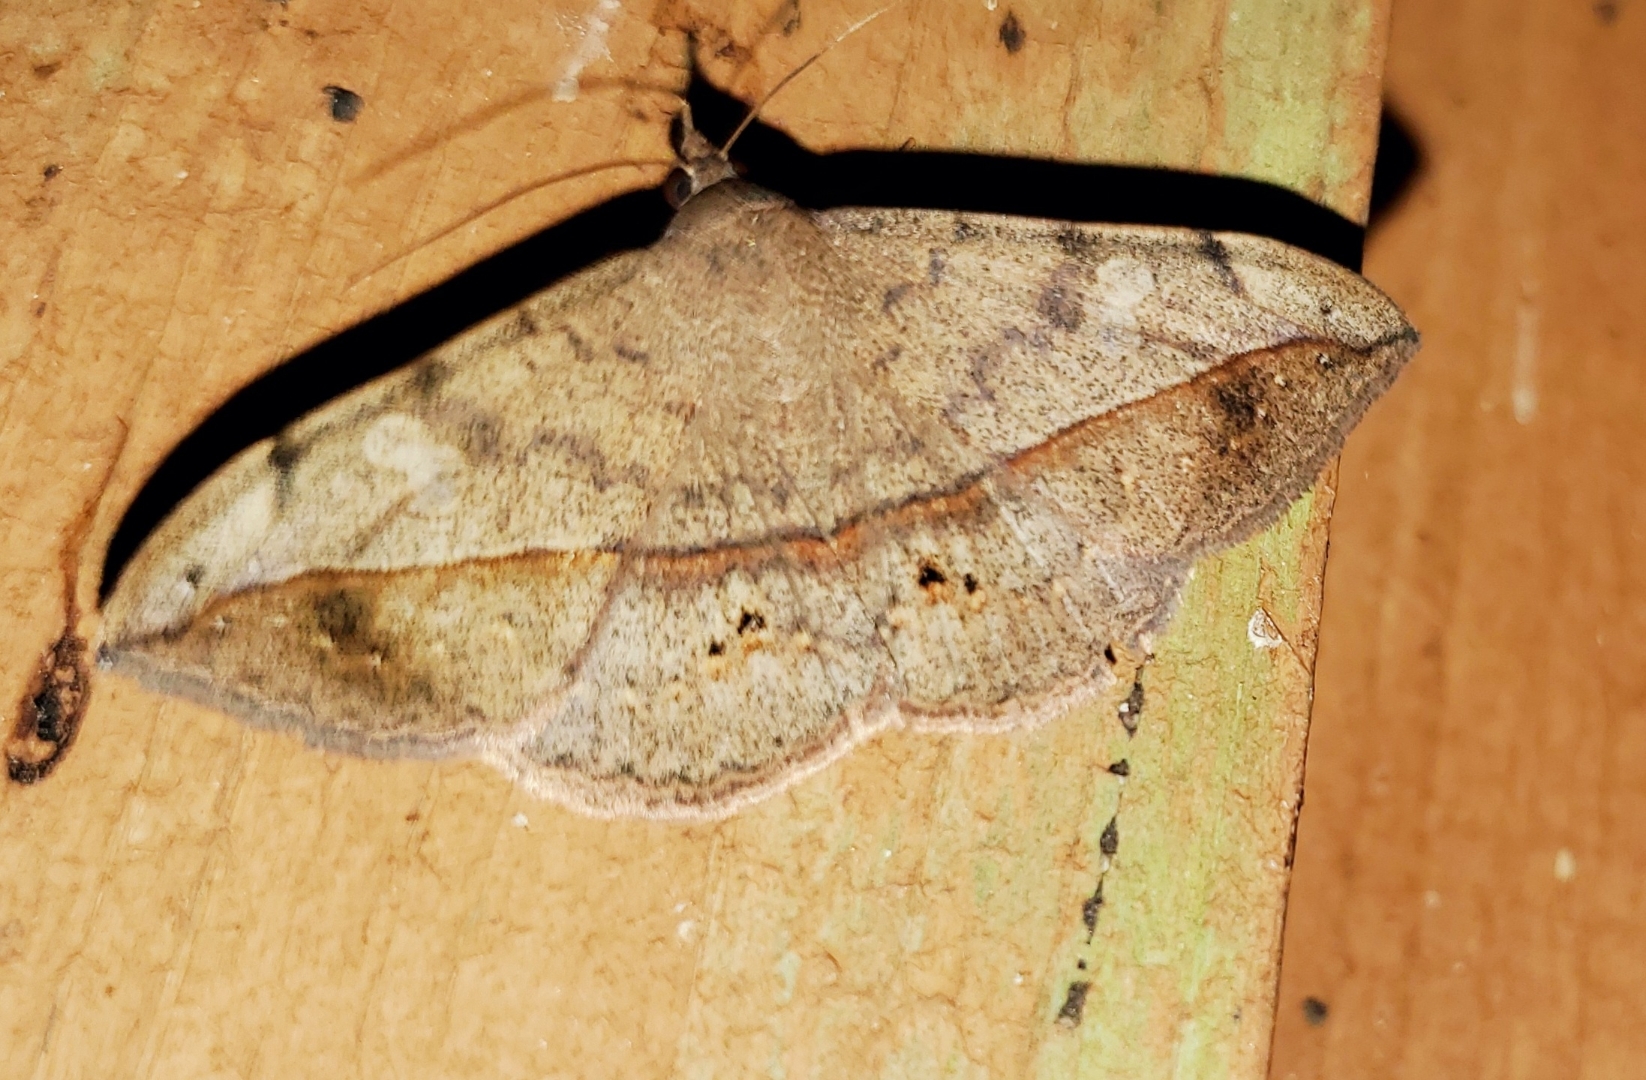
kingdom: Animalia
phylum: Arthropoda
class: Insecta
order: Lepidoptera
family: Erebidae
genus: Anticarsia
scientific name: Anticarsia gemmatalis
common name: Cutworm moth
